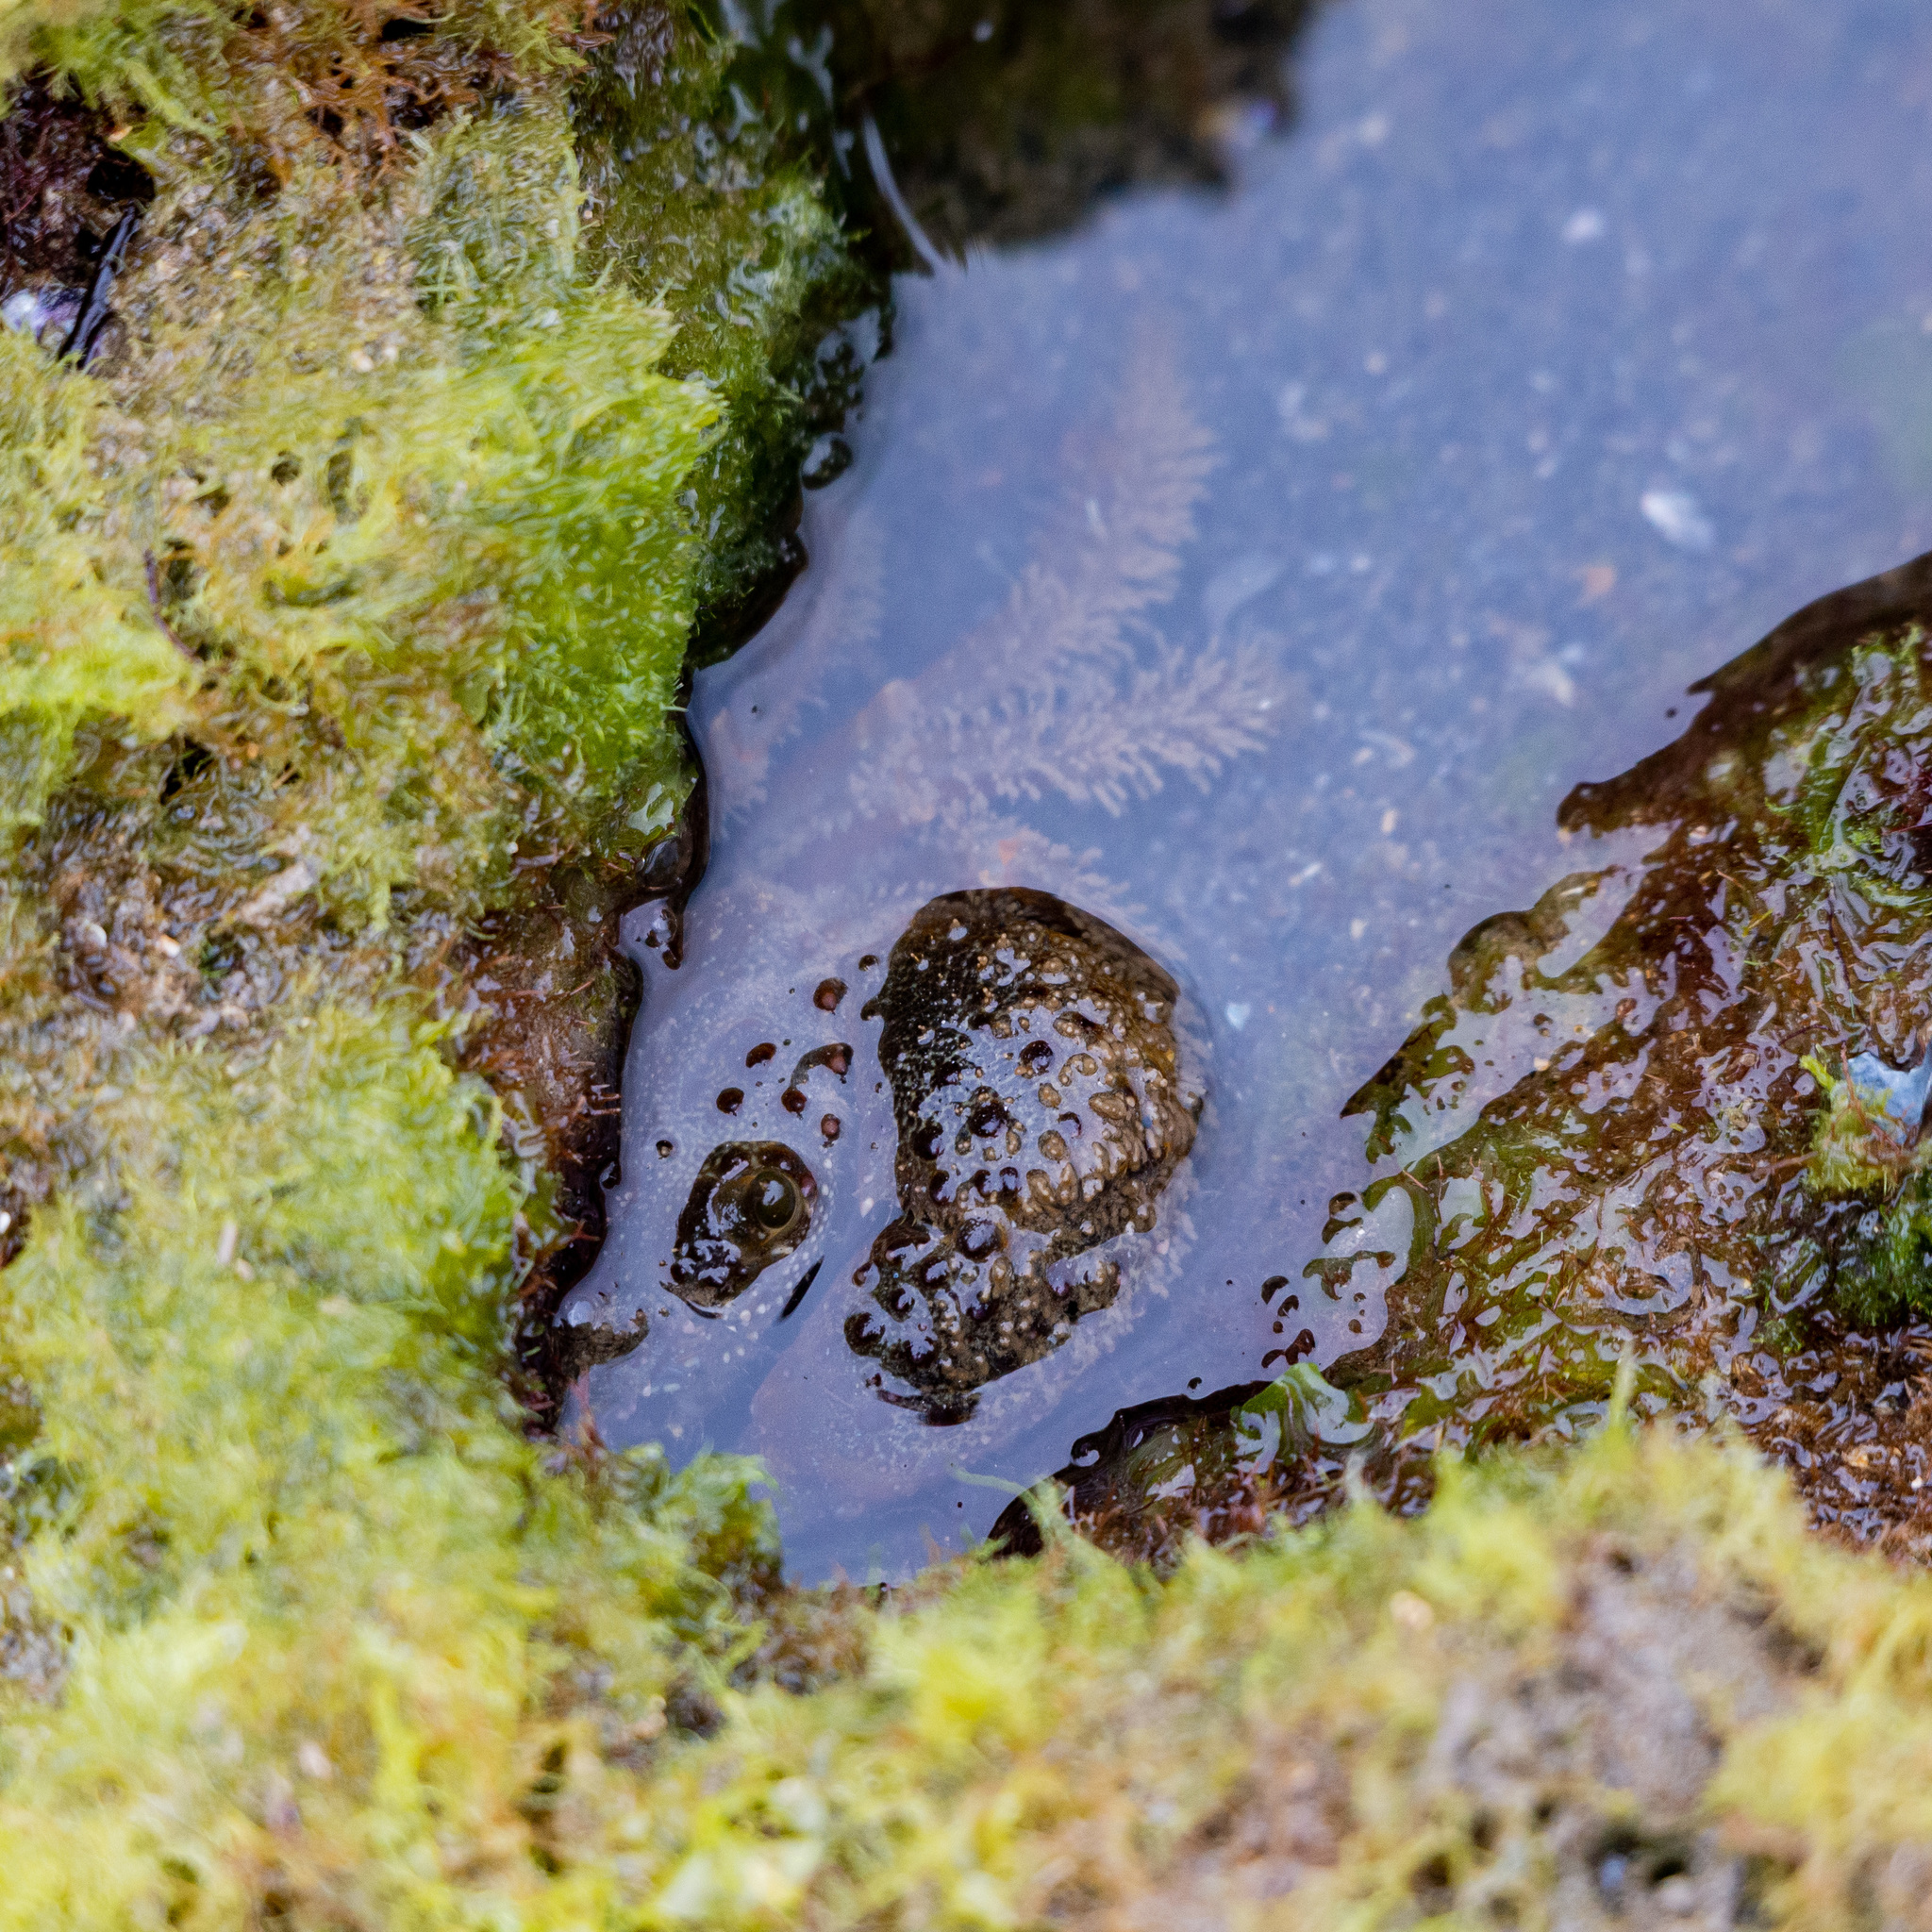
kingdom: Animalia
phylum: Arthropoda
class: Malacostraca
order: Decapoda
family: Eriphiidae
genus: Eriphia
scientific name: Eriphia verrucosa
